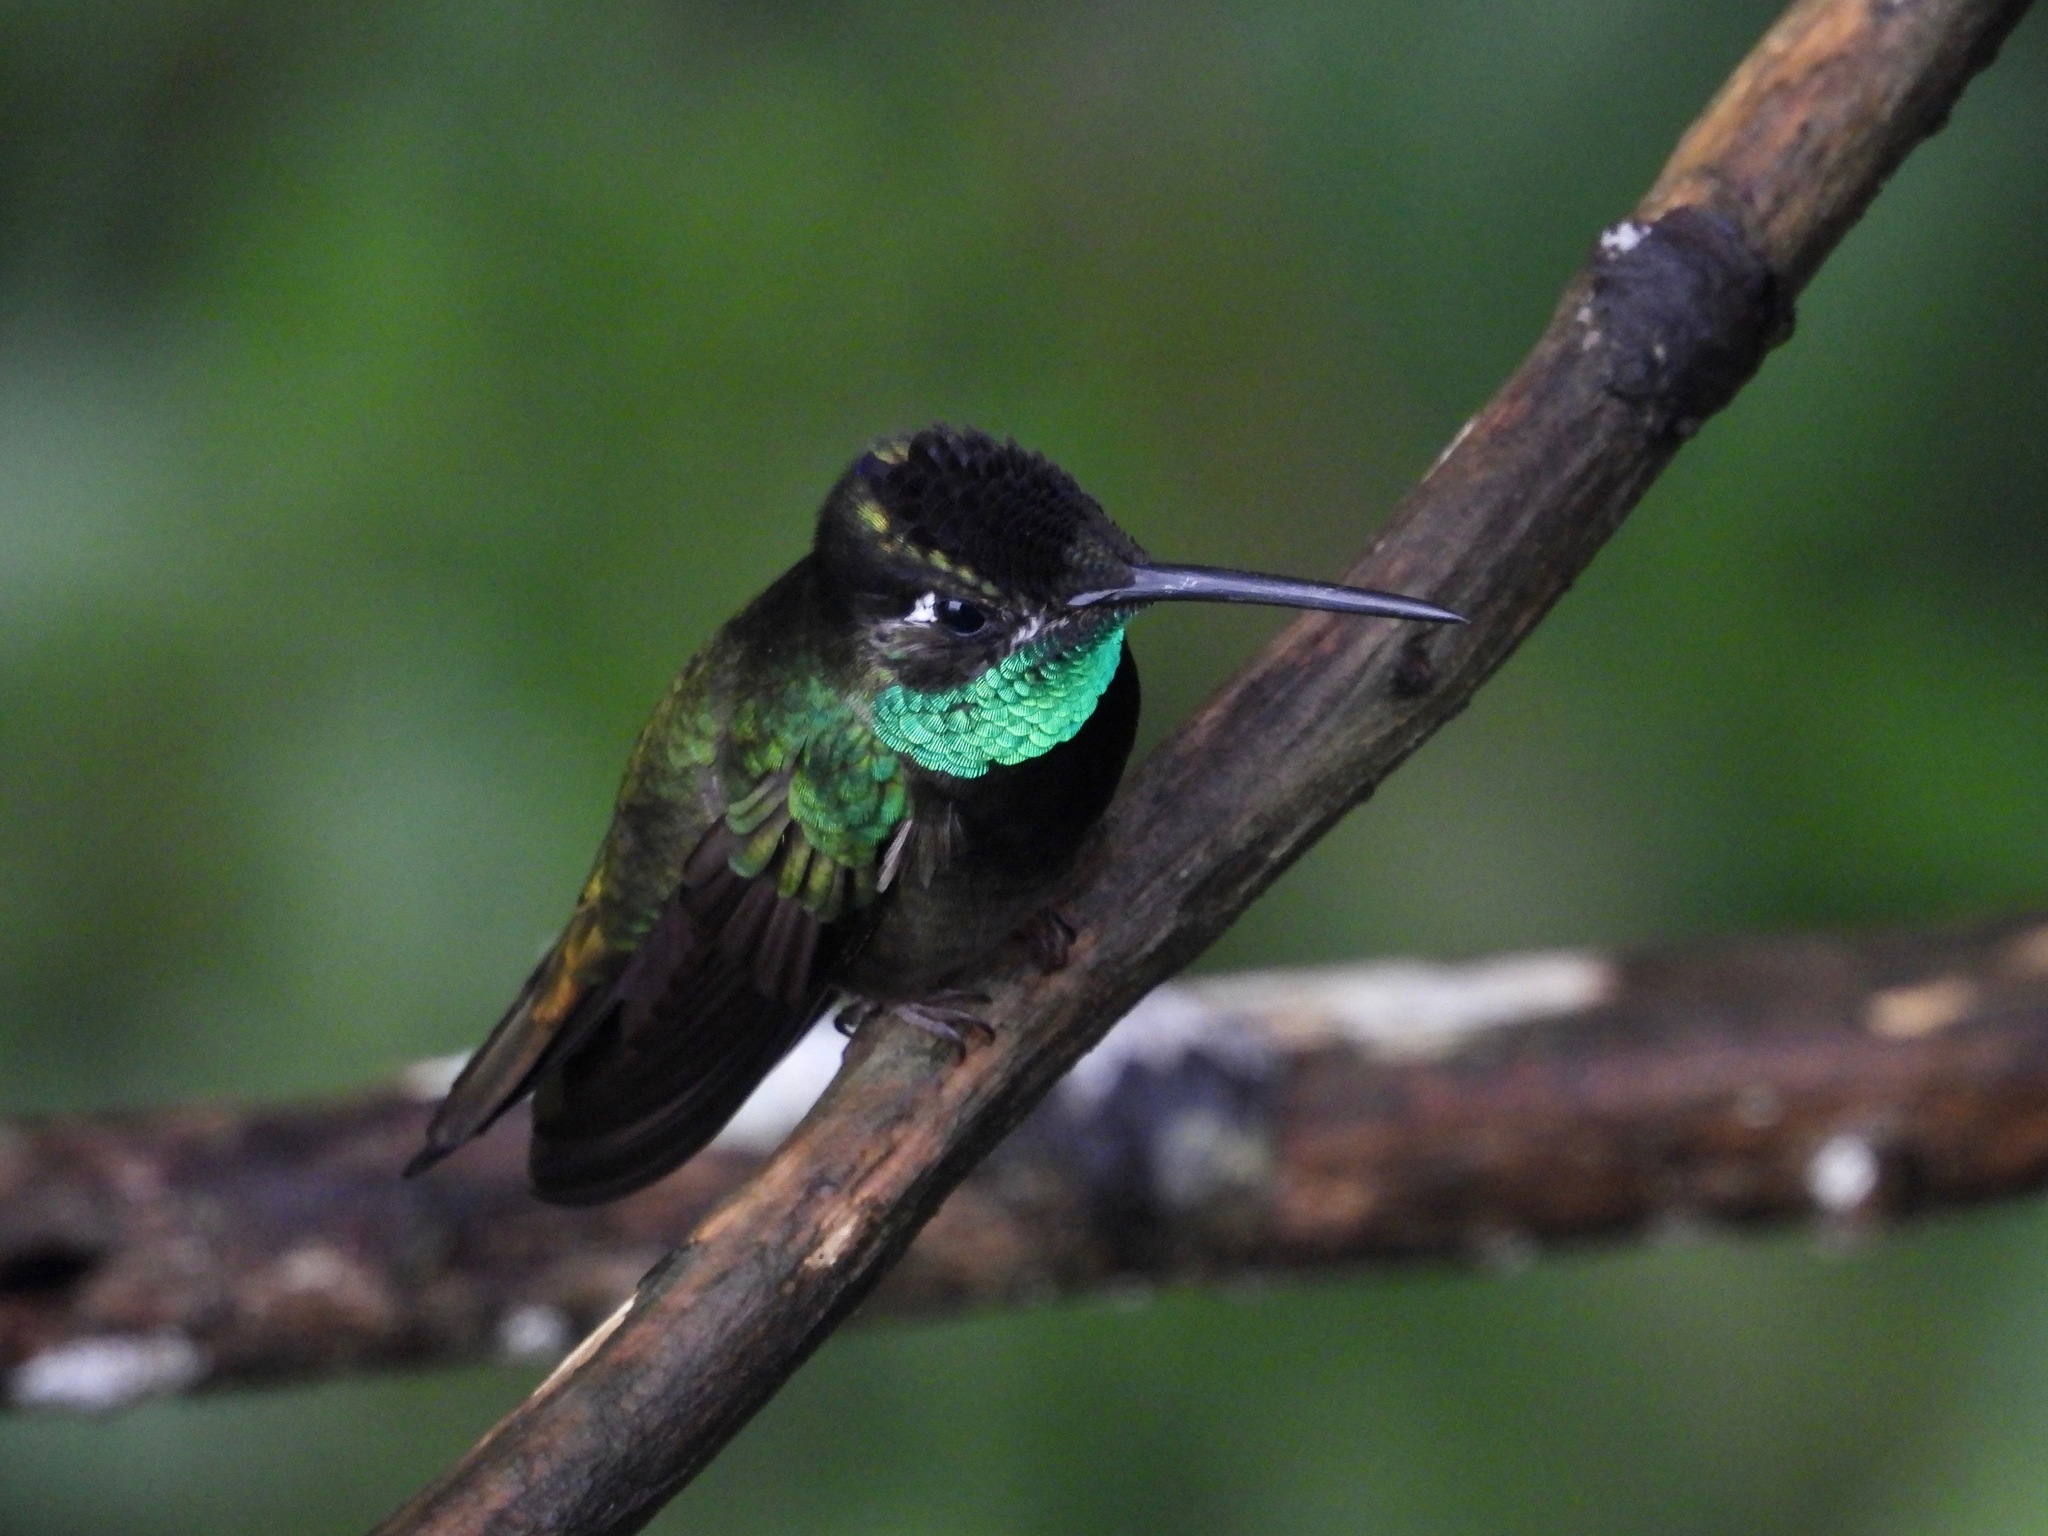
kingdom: Animalia
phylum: Chordata
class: Aves
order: Apodiformes
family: Trochilidae
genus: Eugenes
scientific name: Eugenes fulgens
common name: Magnificent hummingbird
